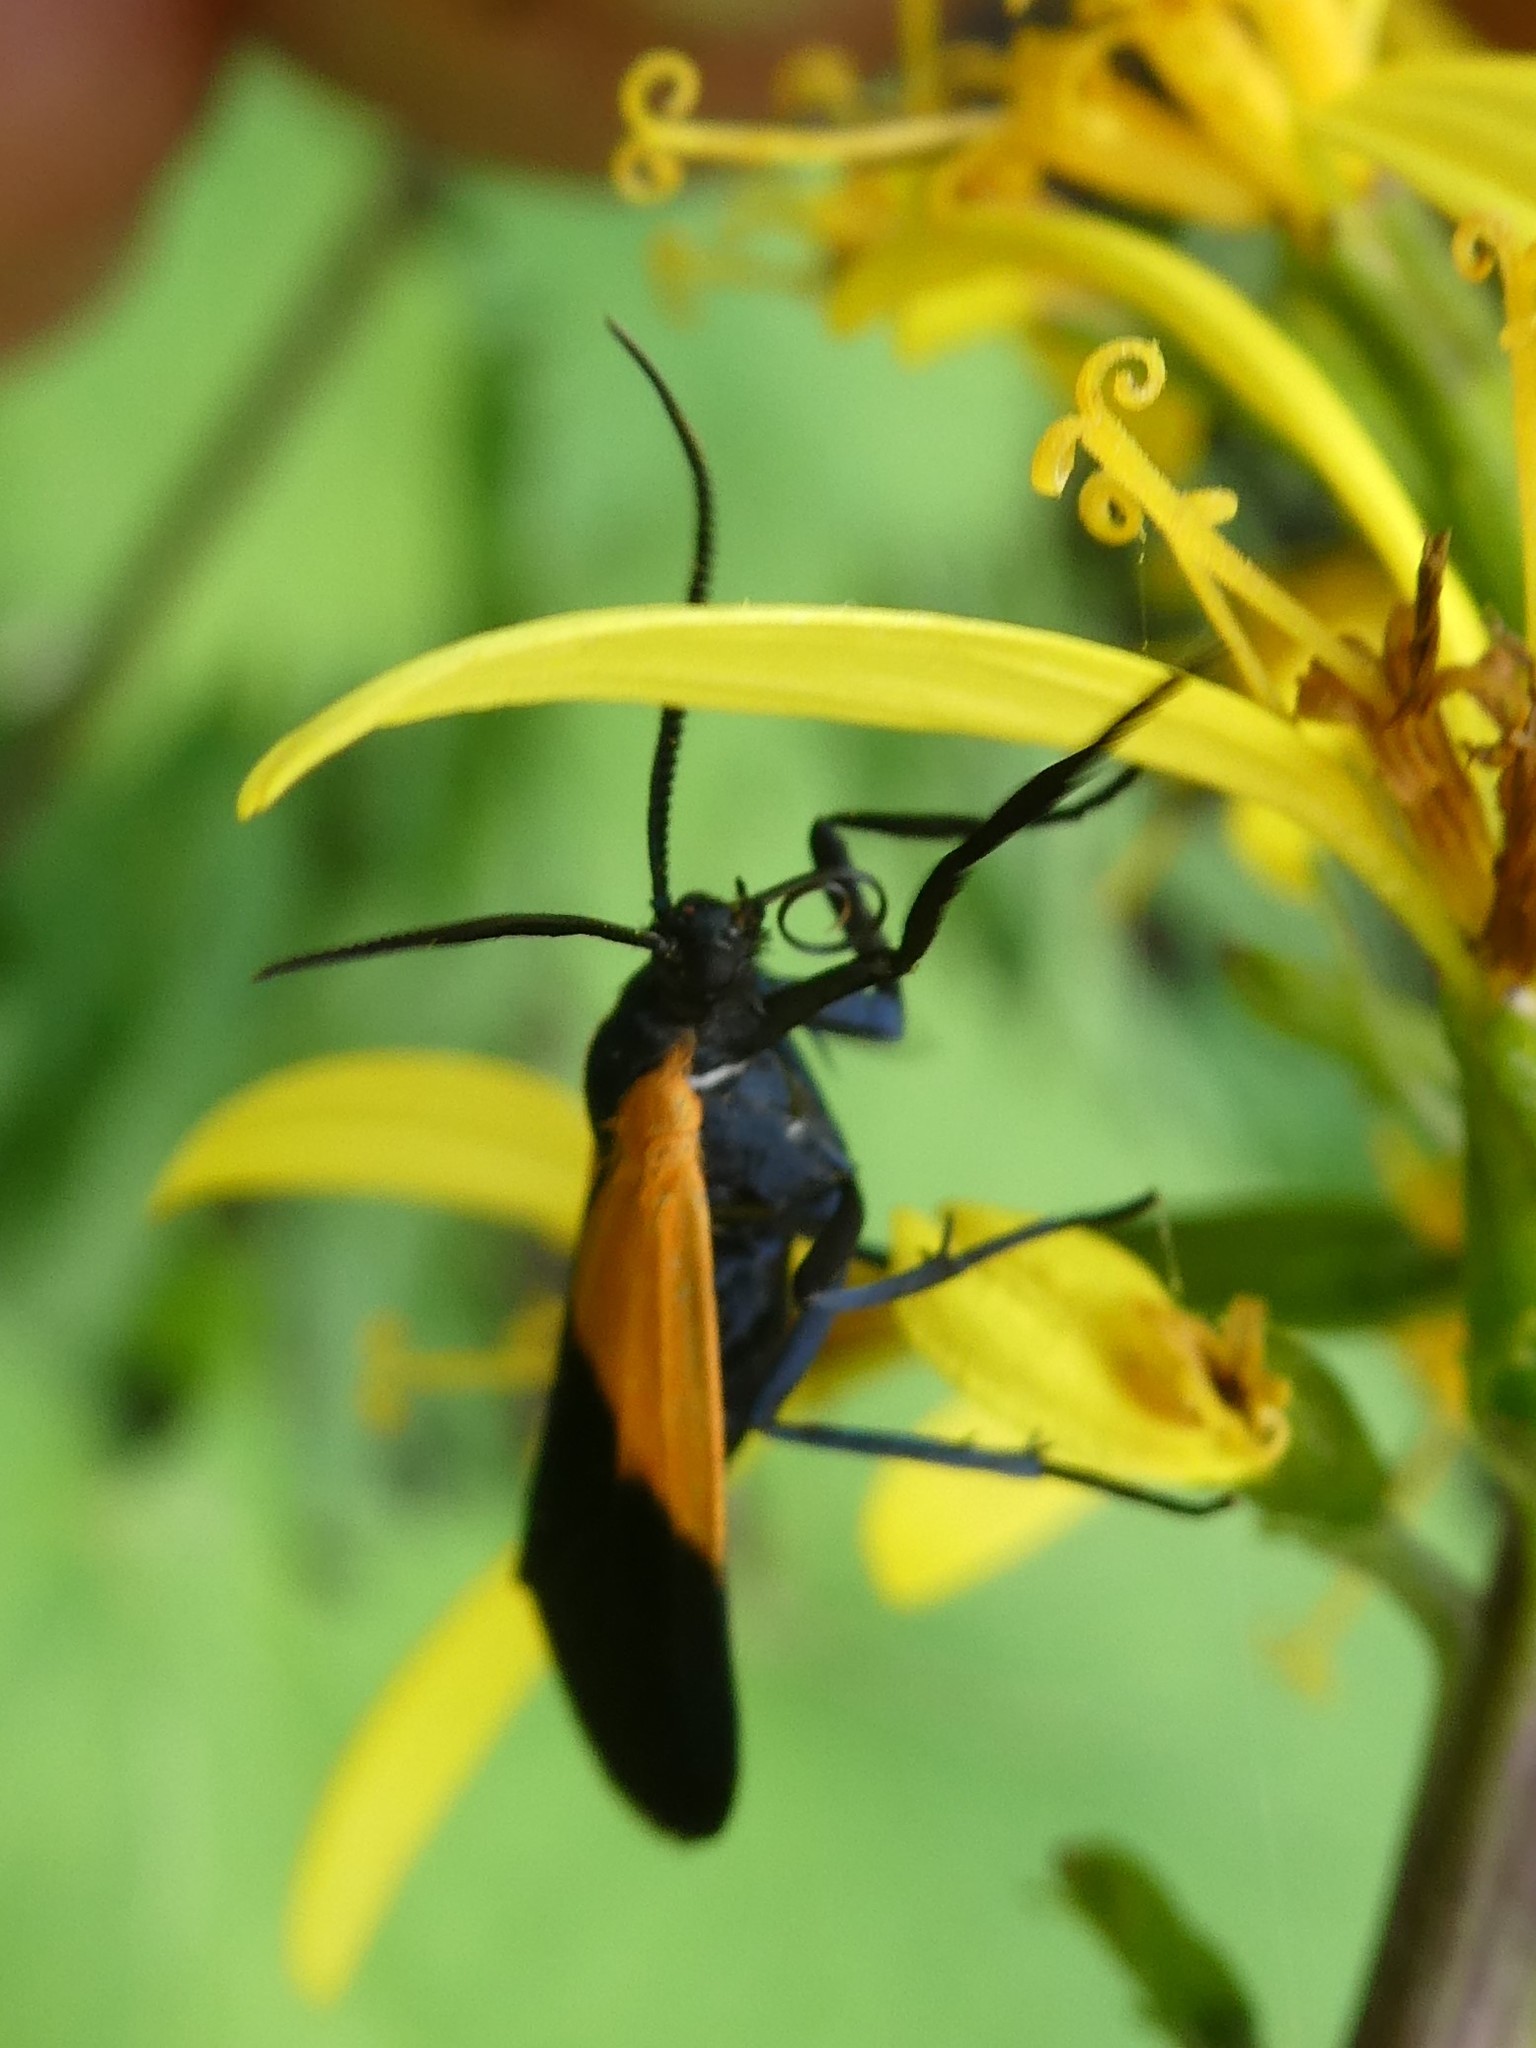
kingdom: Animalia
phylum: Arthropoda
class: Insecta
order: Lepidoptera
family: Erebidae
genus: Lycomorpha
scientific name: Lycomorpha pholus
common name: Black-and-yellow lichen moth
